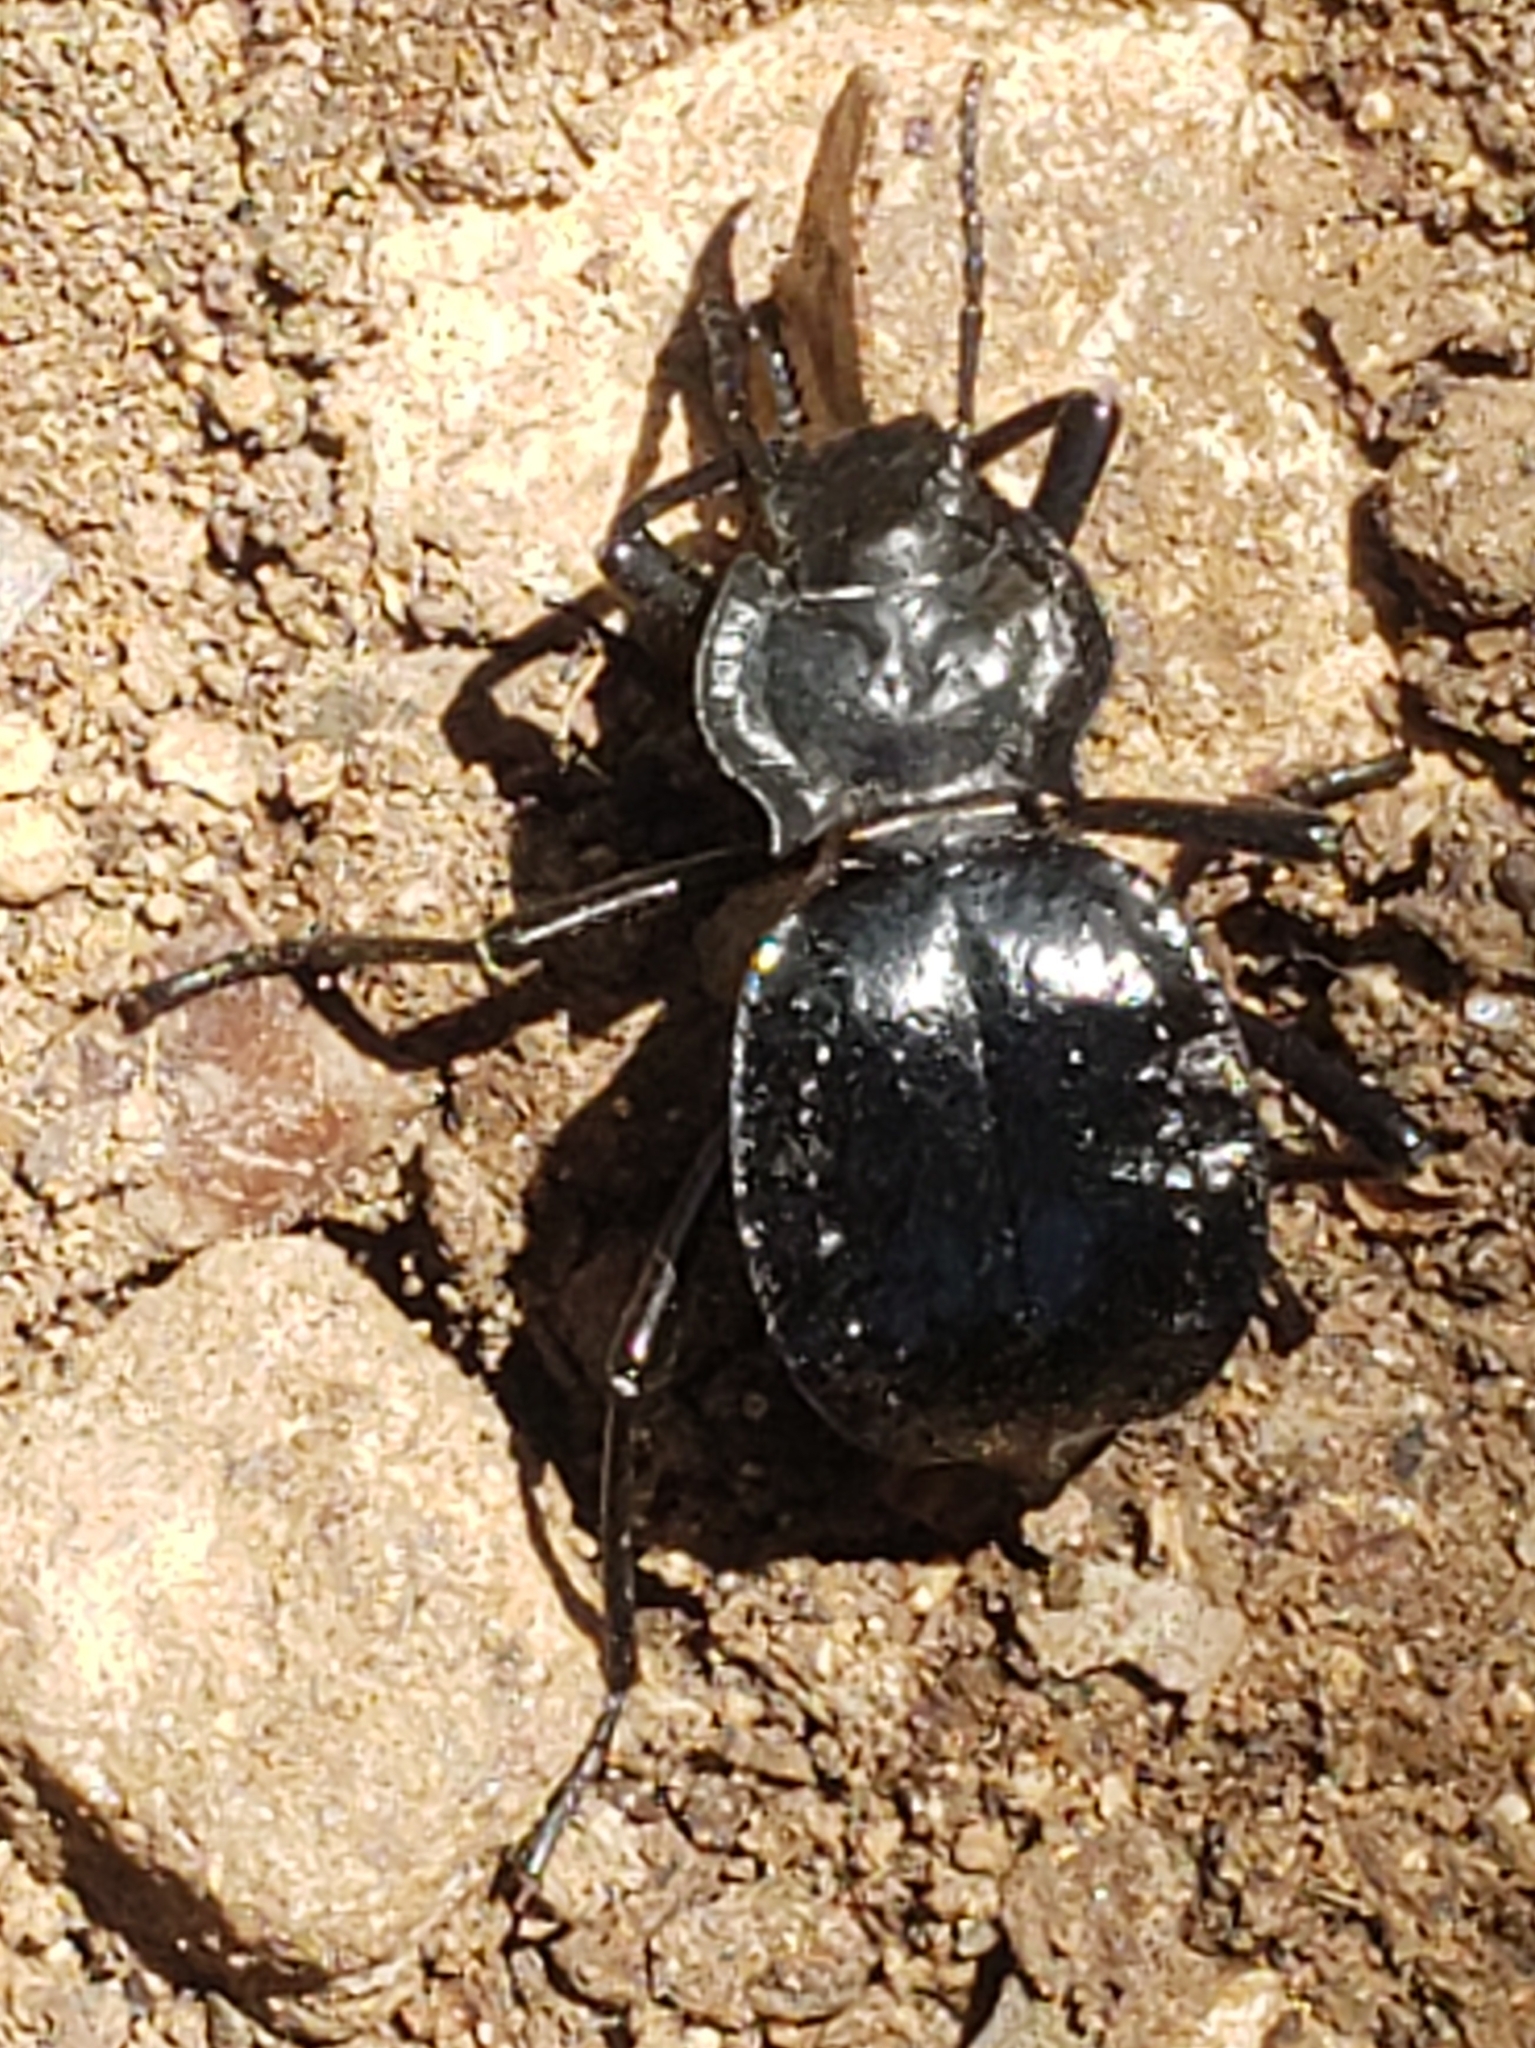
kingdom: Animalia
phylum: Arthropoda
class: Insecta
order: Coleoptera
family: Tenebrionidae
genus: Akis
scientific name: Akis bacarozzo
